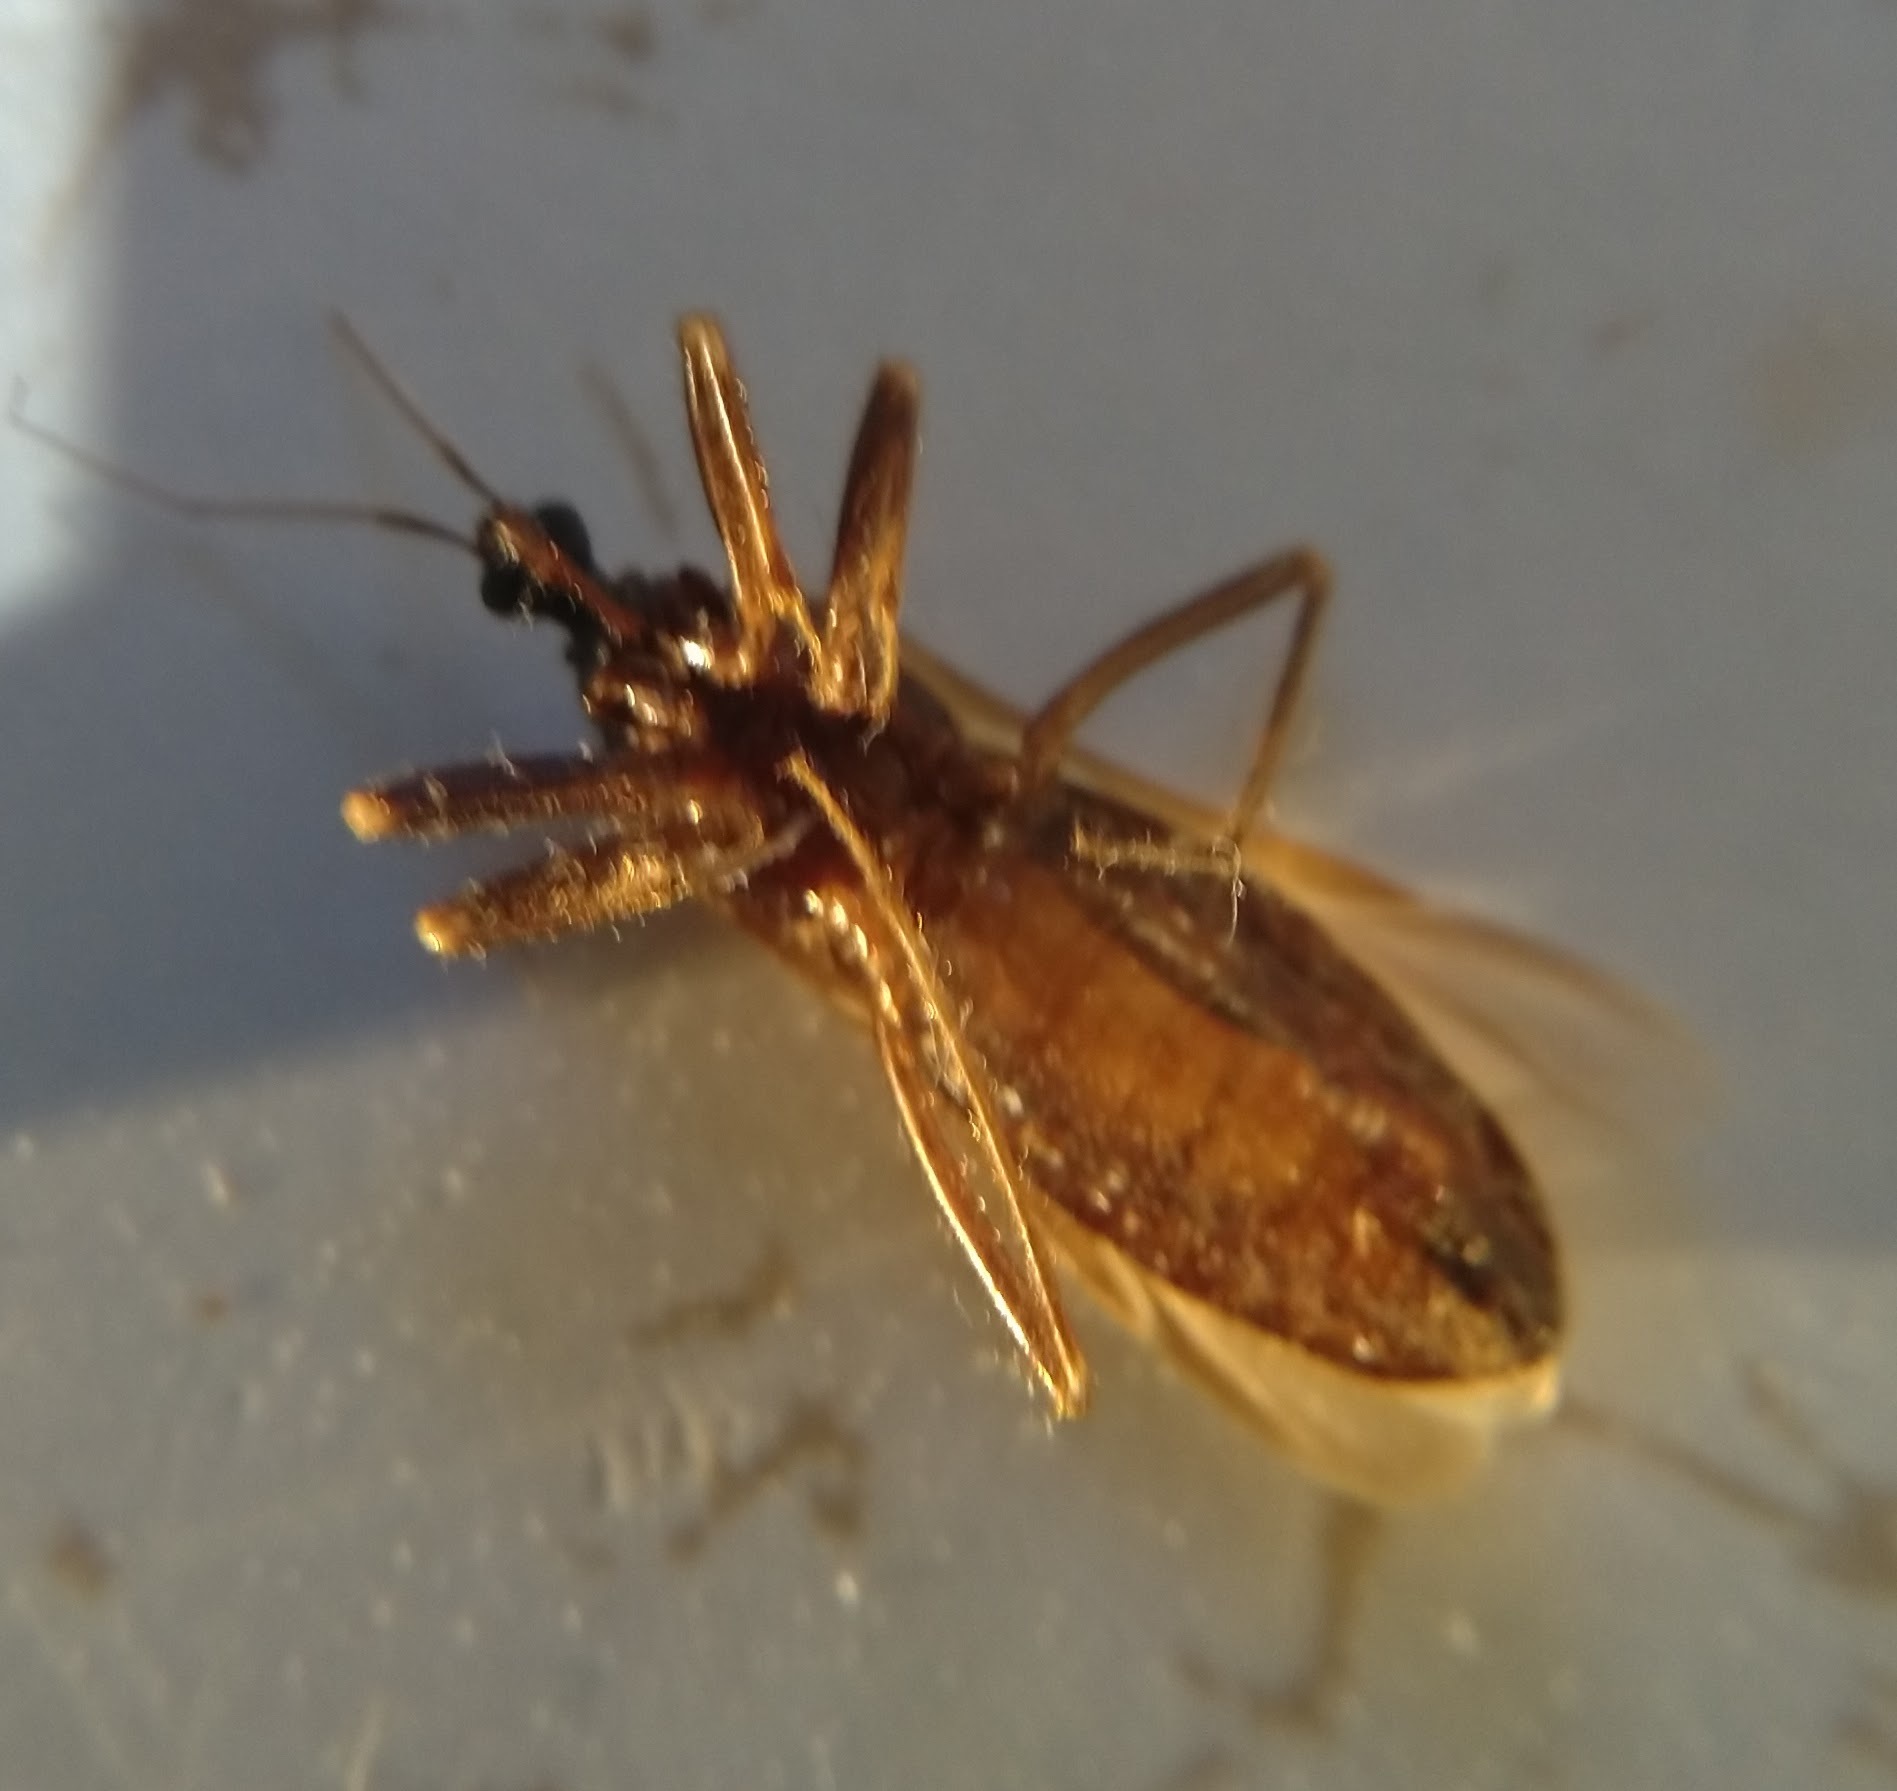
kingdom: Animalia
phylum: Arthropoda
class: Insecta
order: Hemiptera
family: Reduviidae
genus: Reduvius
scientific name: Reduvius personatus
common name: Masked hunter
